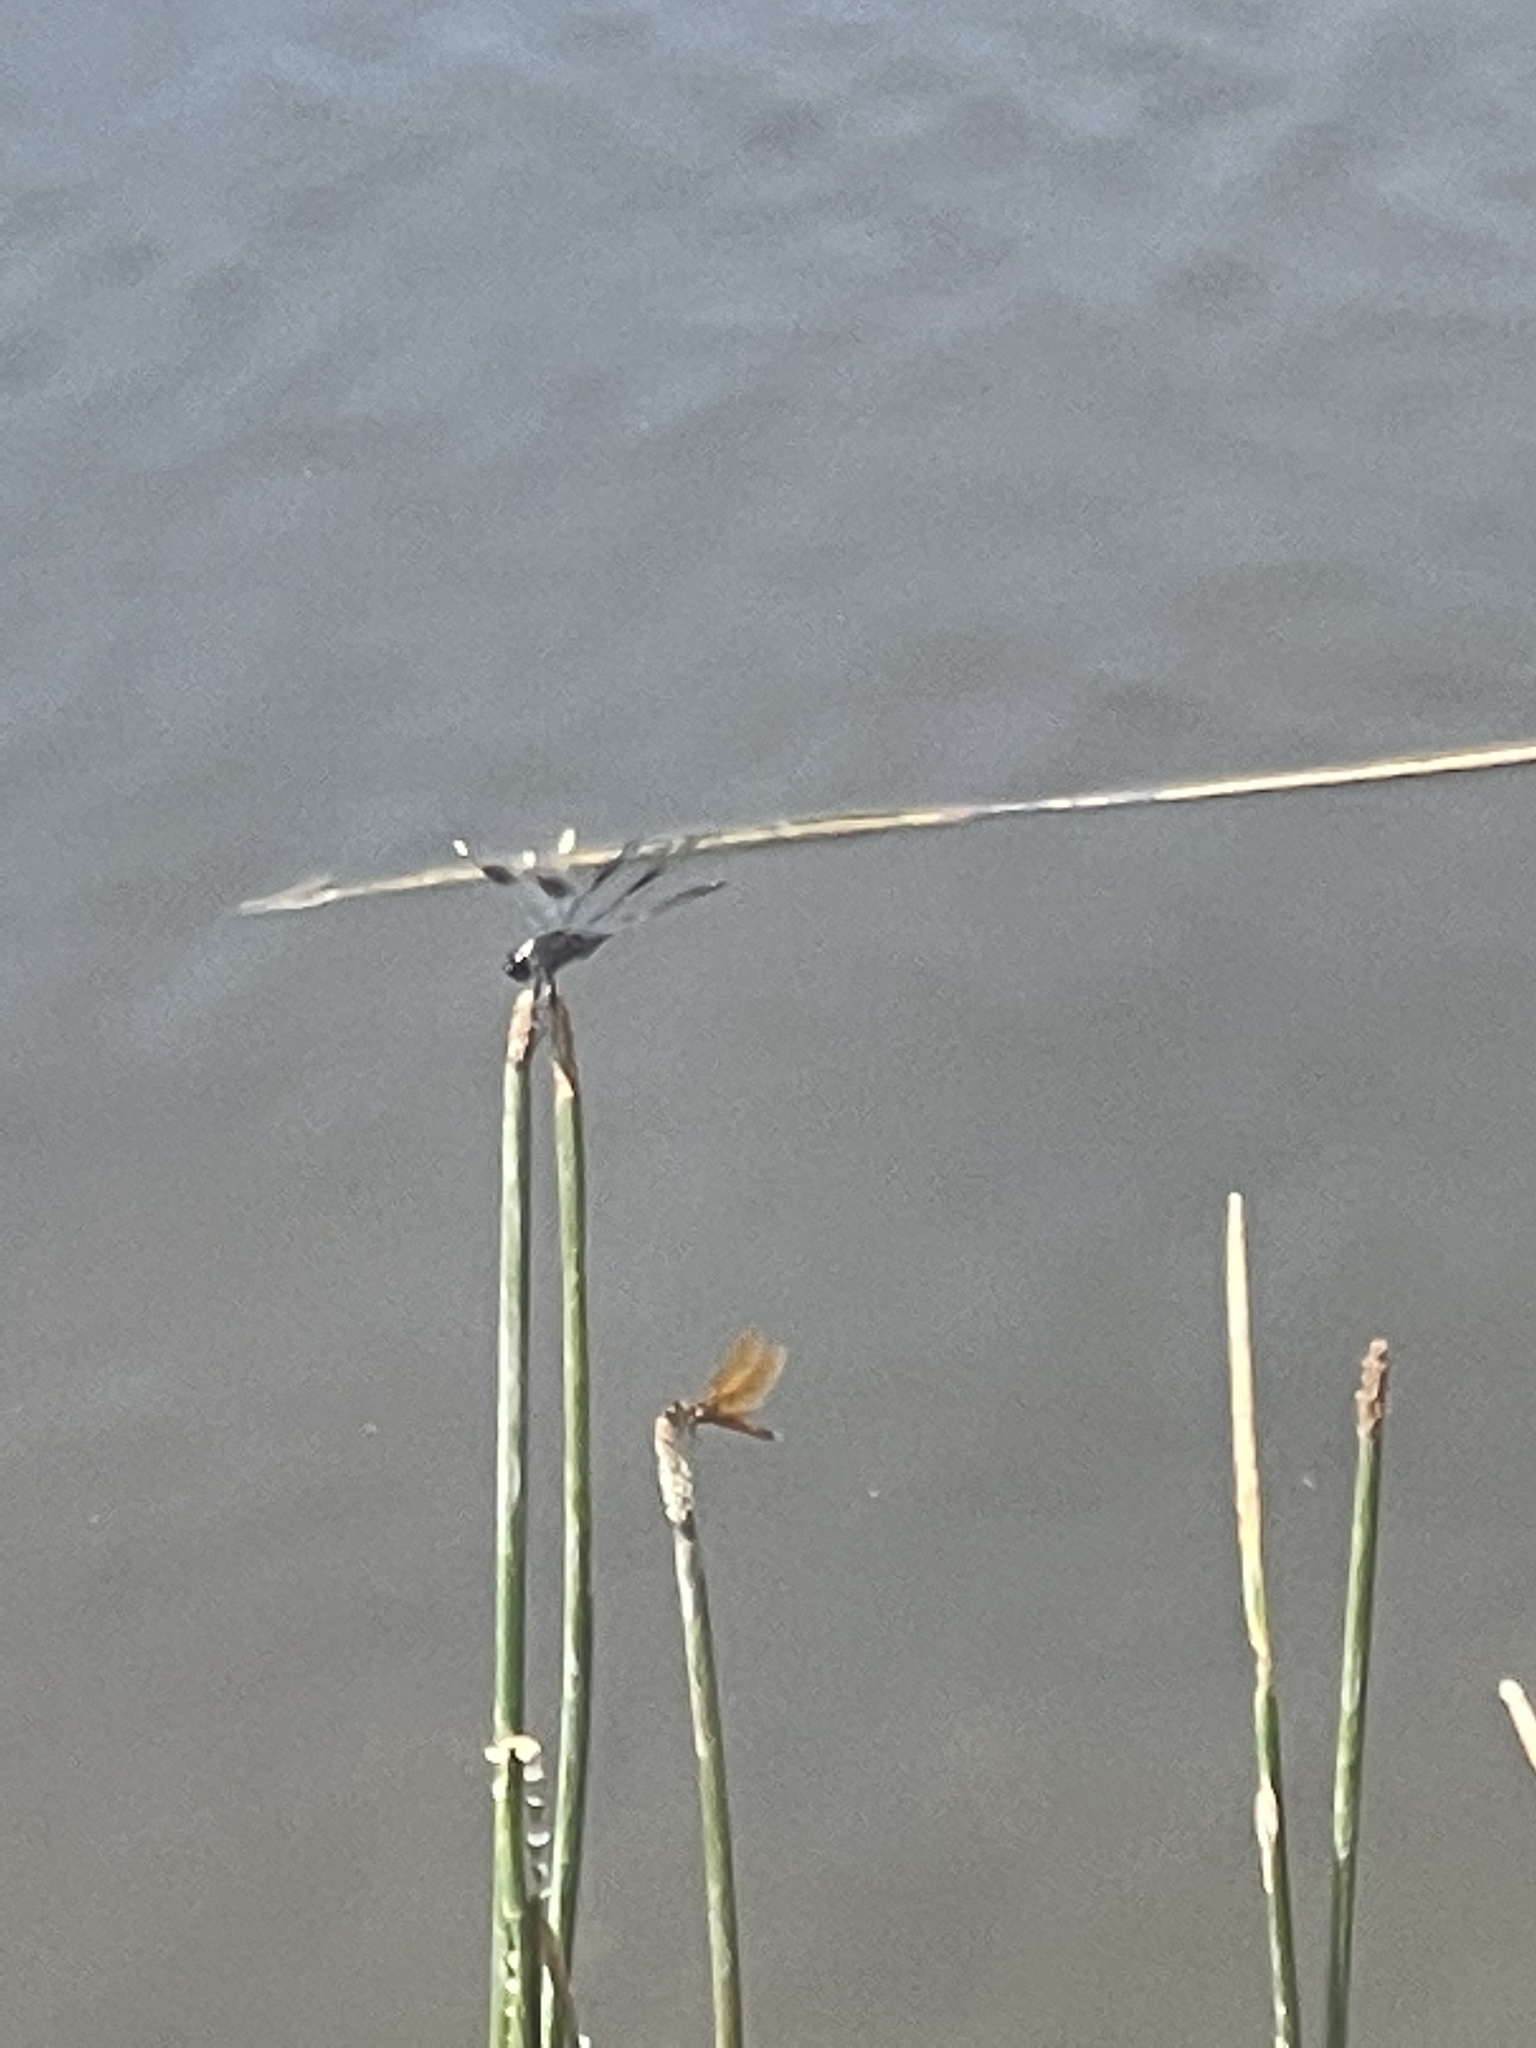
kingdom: Animalia
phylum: Arthropoda
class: Insecta
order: Odonata
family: Libellulidae
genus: Brachymesia
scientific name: Brachymesia gravida
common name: Four-spotted pennant
